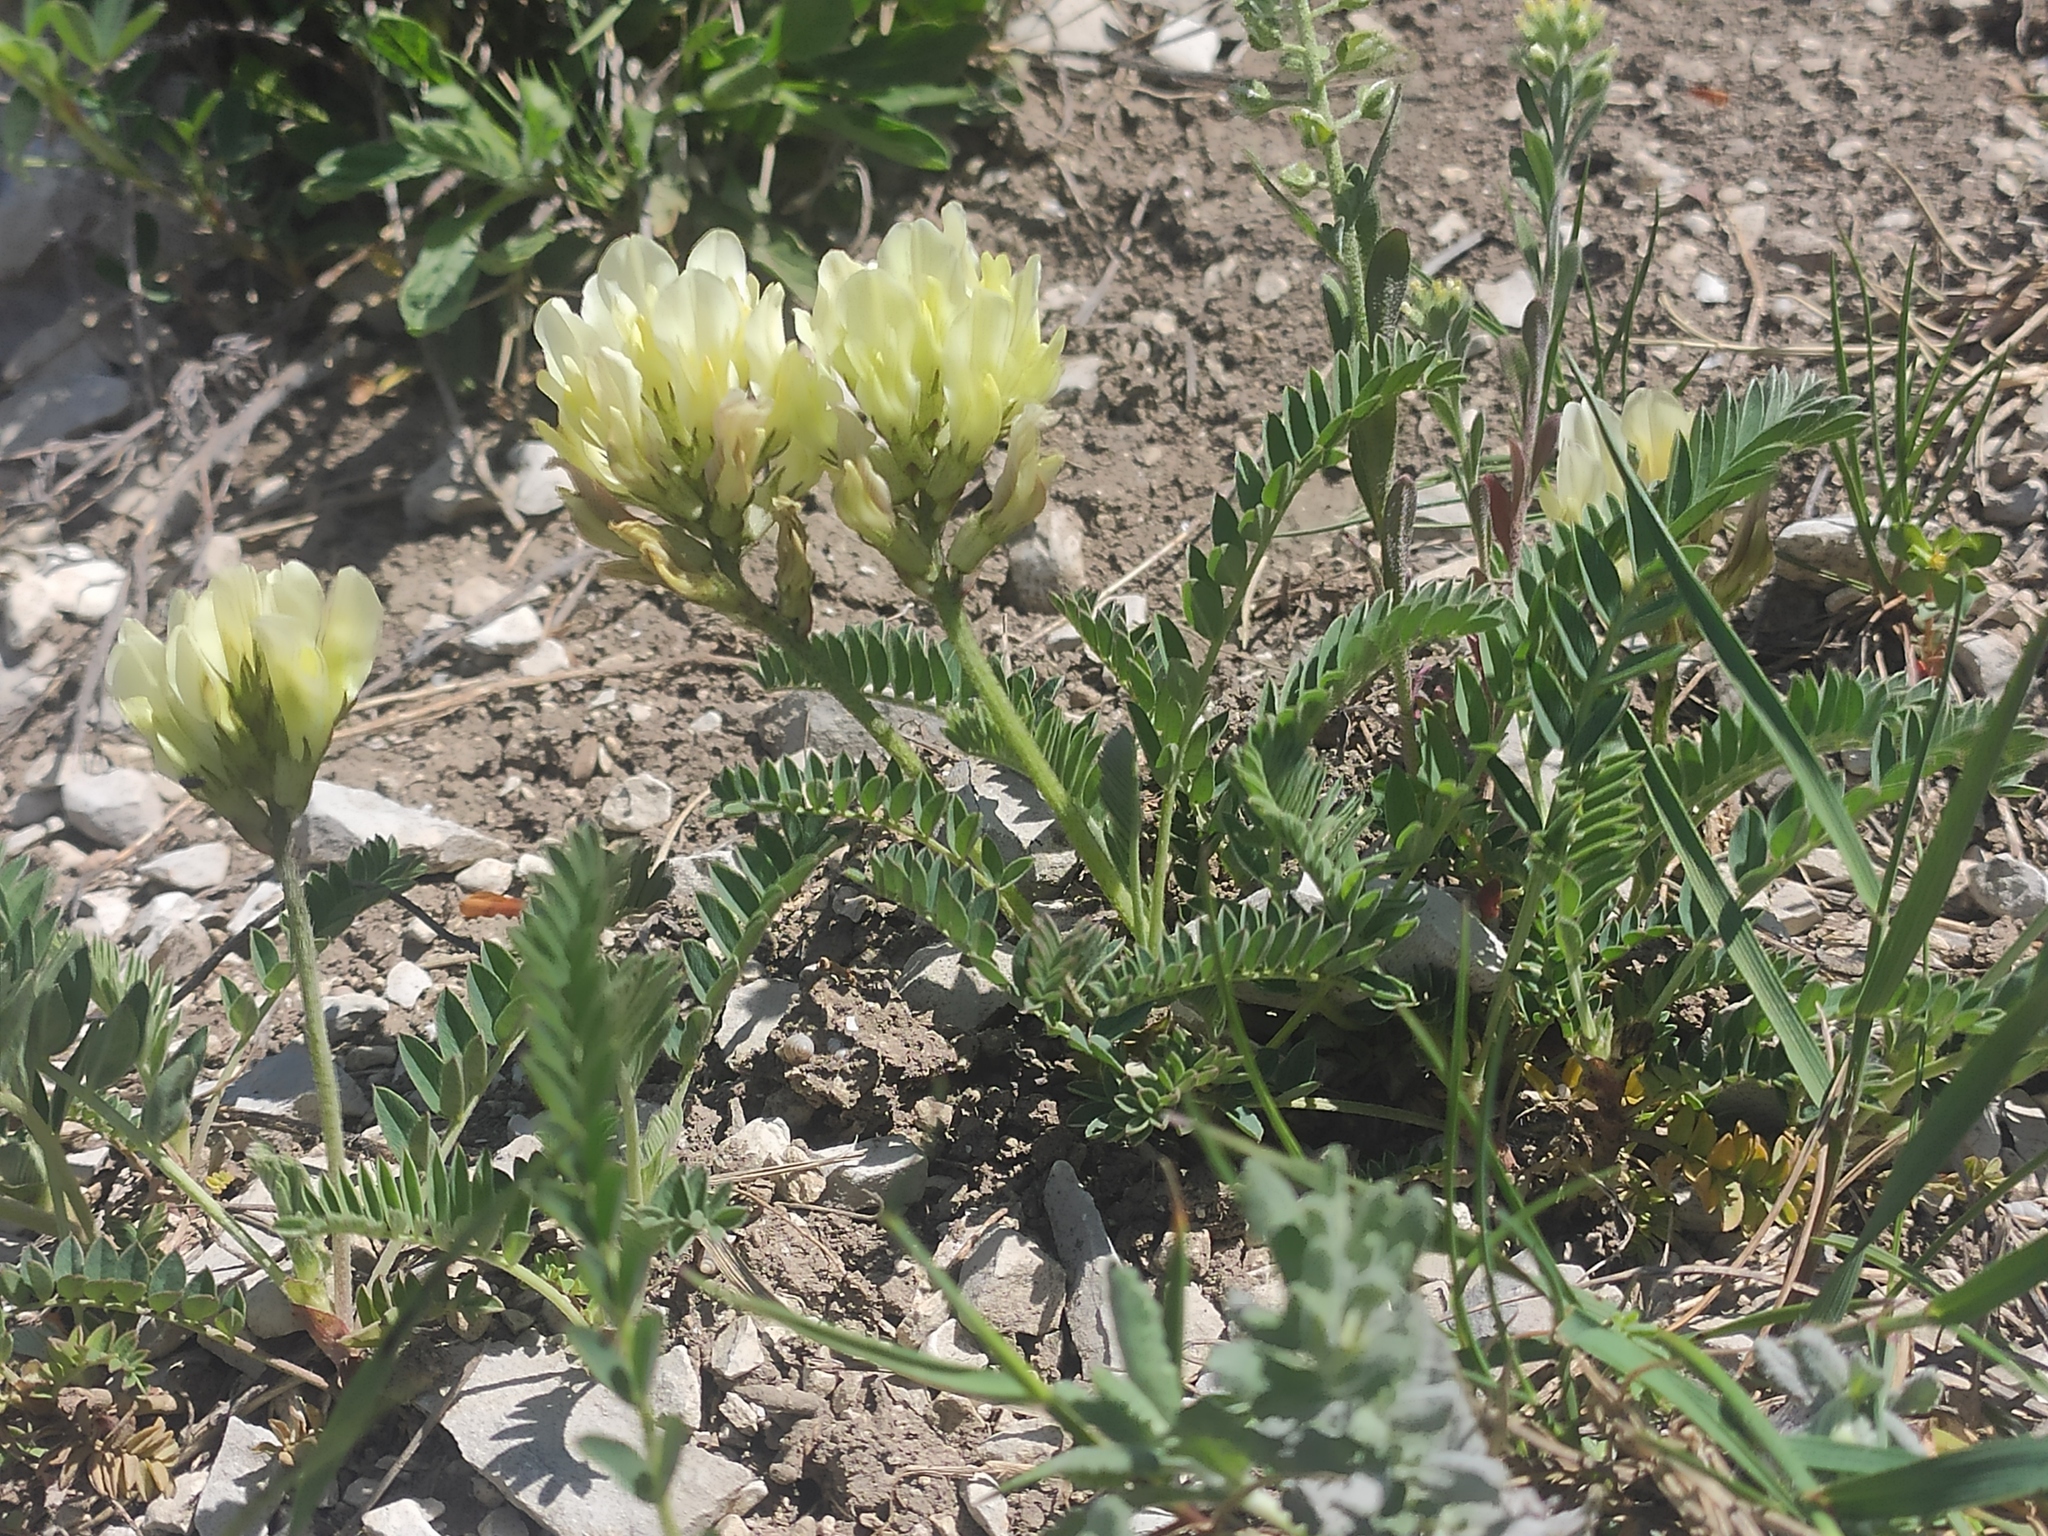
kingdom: Plantae
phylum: Tracheophyta
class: Magnoliopsida
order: Fabales
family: Fabaceae
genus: Astragalus
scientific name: Astragalus captiosus
